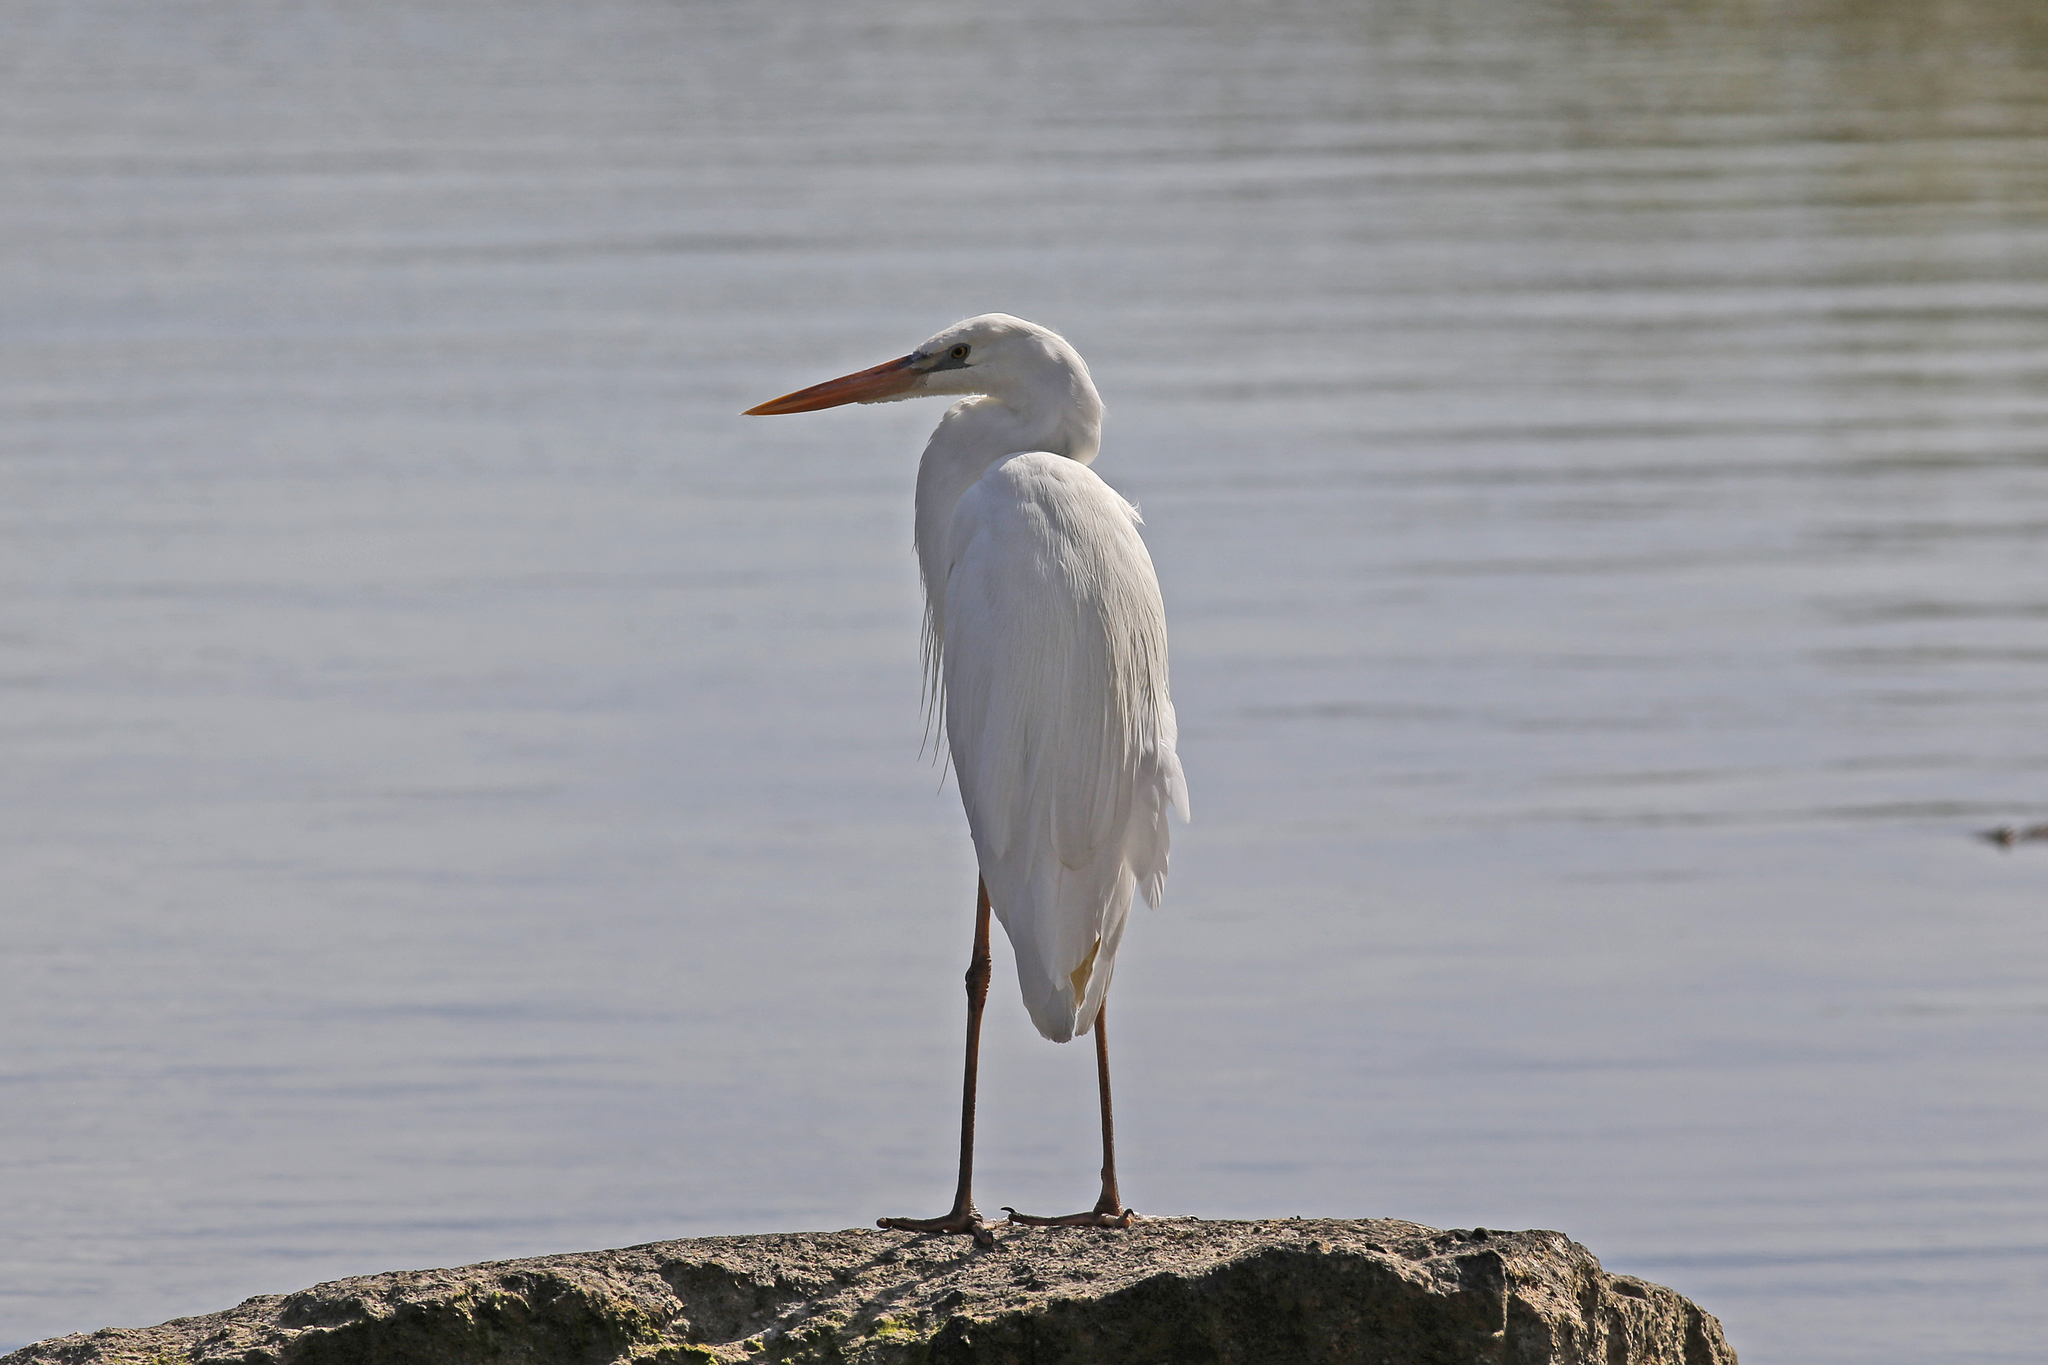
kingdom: Animalia
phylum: Chordata
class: Aves
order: Pelecaniformes
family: Ardeidae
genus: Ardea
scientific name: Ardea herodias
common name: Great blue heron
